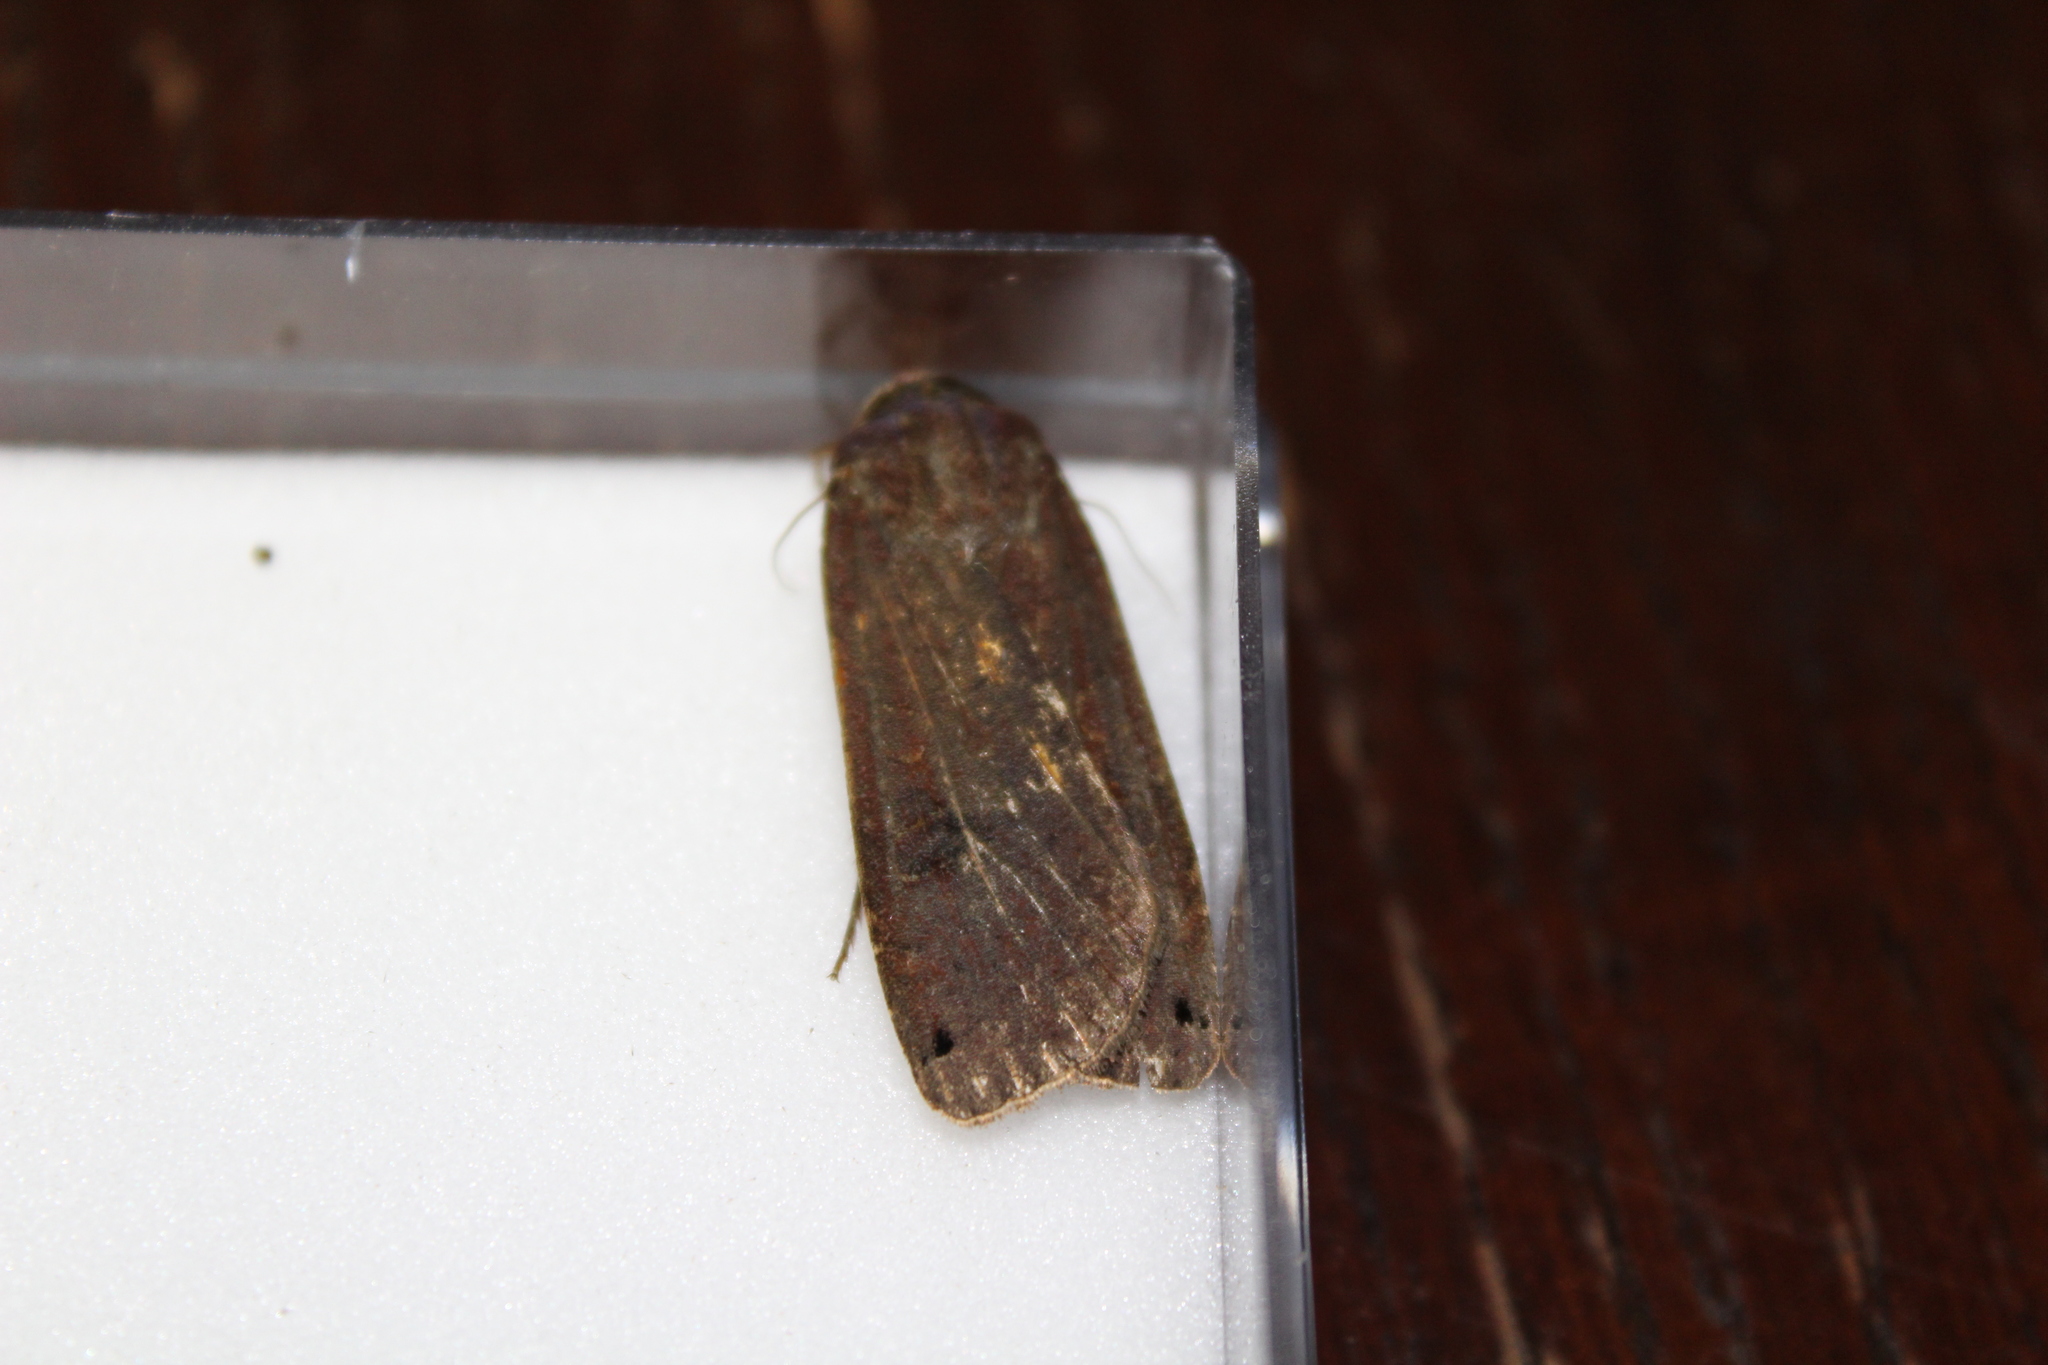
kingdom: Animalia
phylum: Arthropoda
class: Insecta
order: Lepidoptera
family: Noctuidae
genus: Noctua
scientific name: Noctua pronuba
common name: Large yellow underwing
